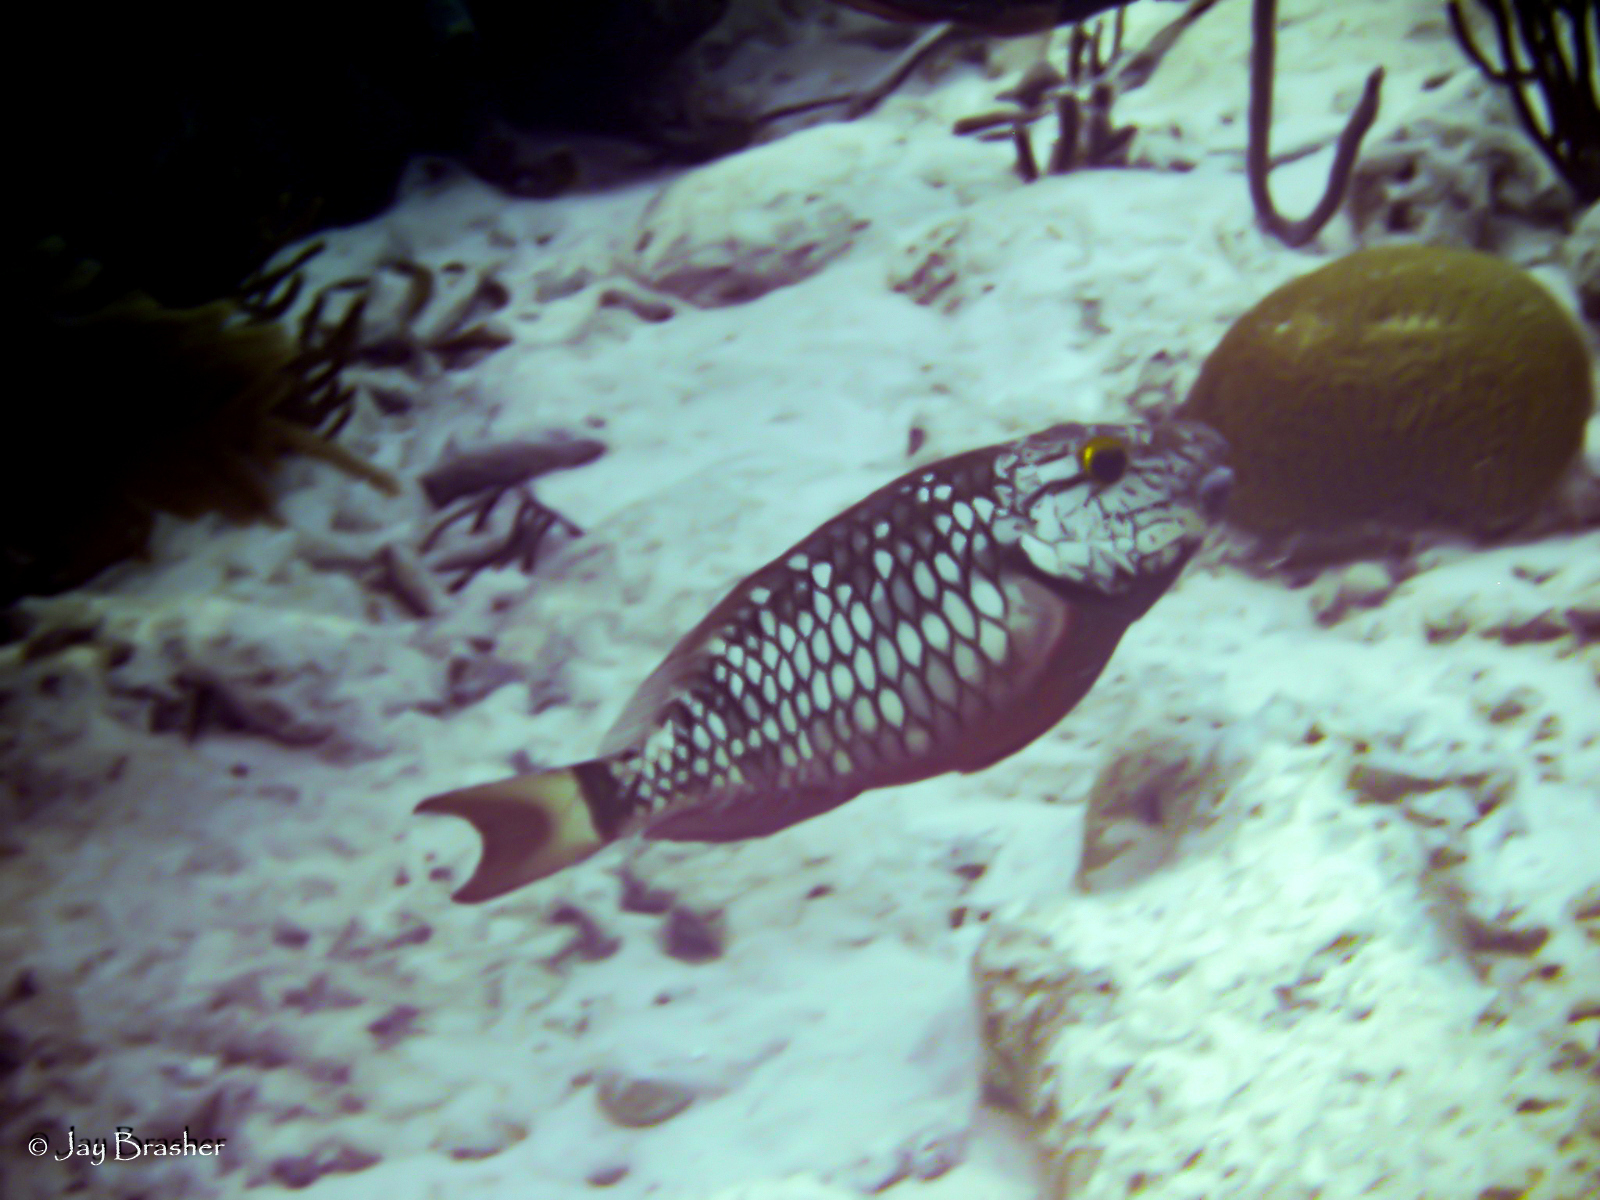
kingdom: Animalia
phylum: Chordata
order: Perciformes
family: Scaridae
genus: Sparisoma
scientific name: Sparisoma viride
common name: Stoplight parrotfish
